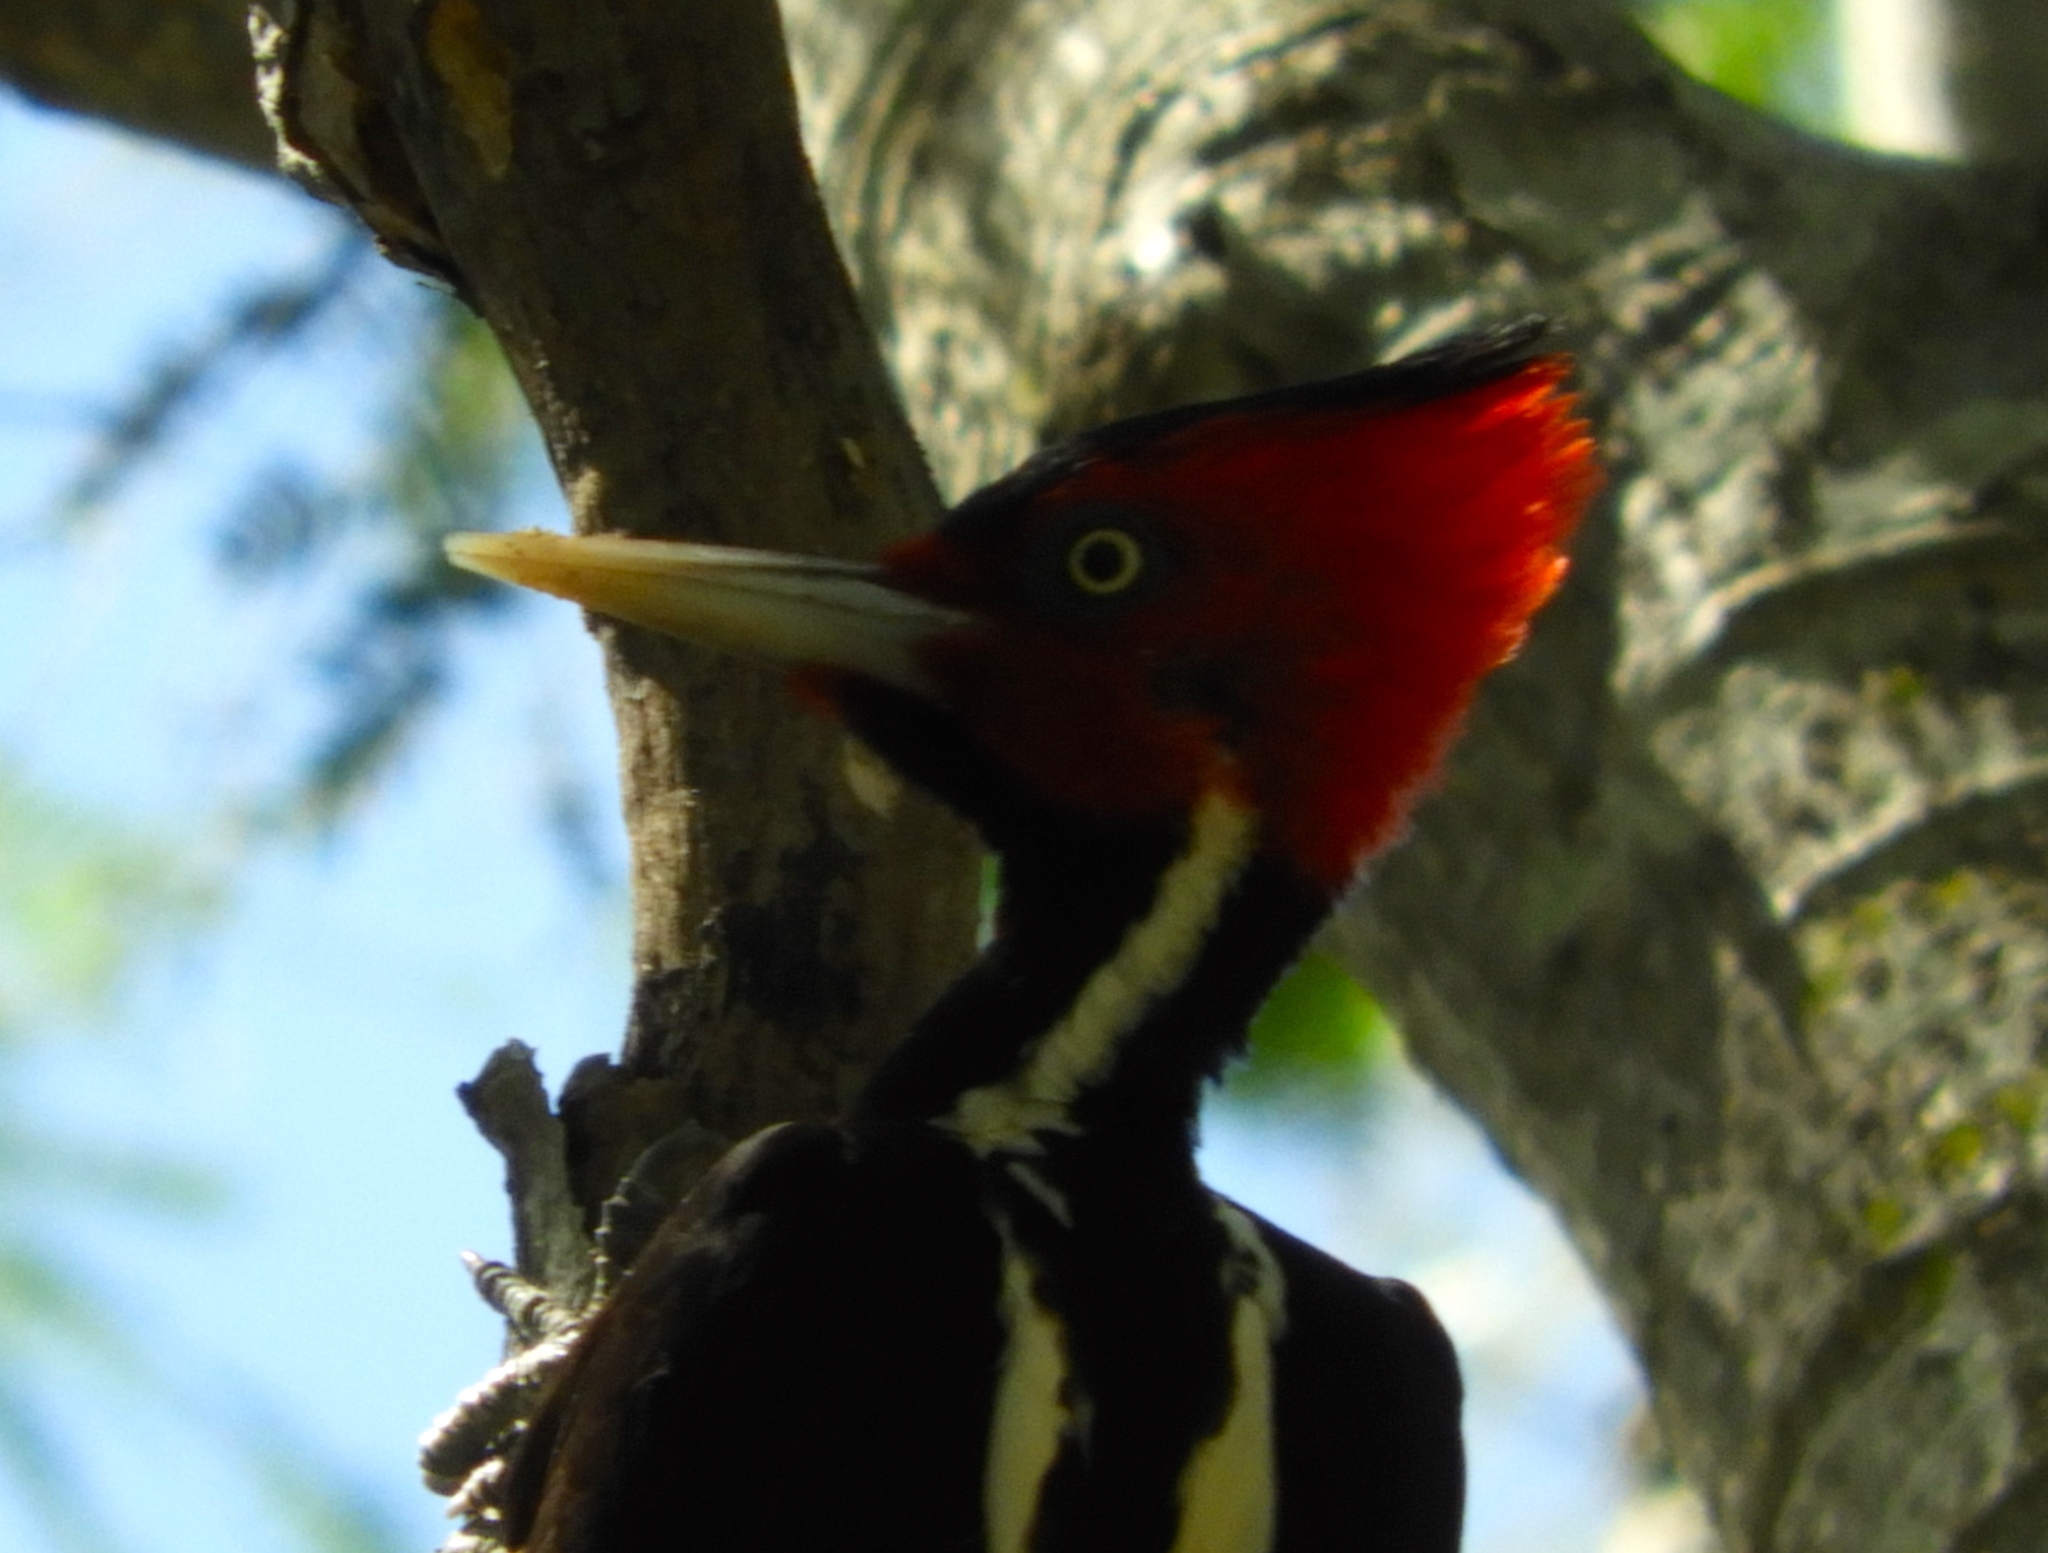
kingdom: Animalia
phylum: Chordata
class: Aves
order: Piciformes
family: Picidae
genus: Campephilus
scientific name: Campephilus guatemalensis
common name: Pale-billed woodpecker
